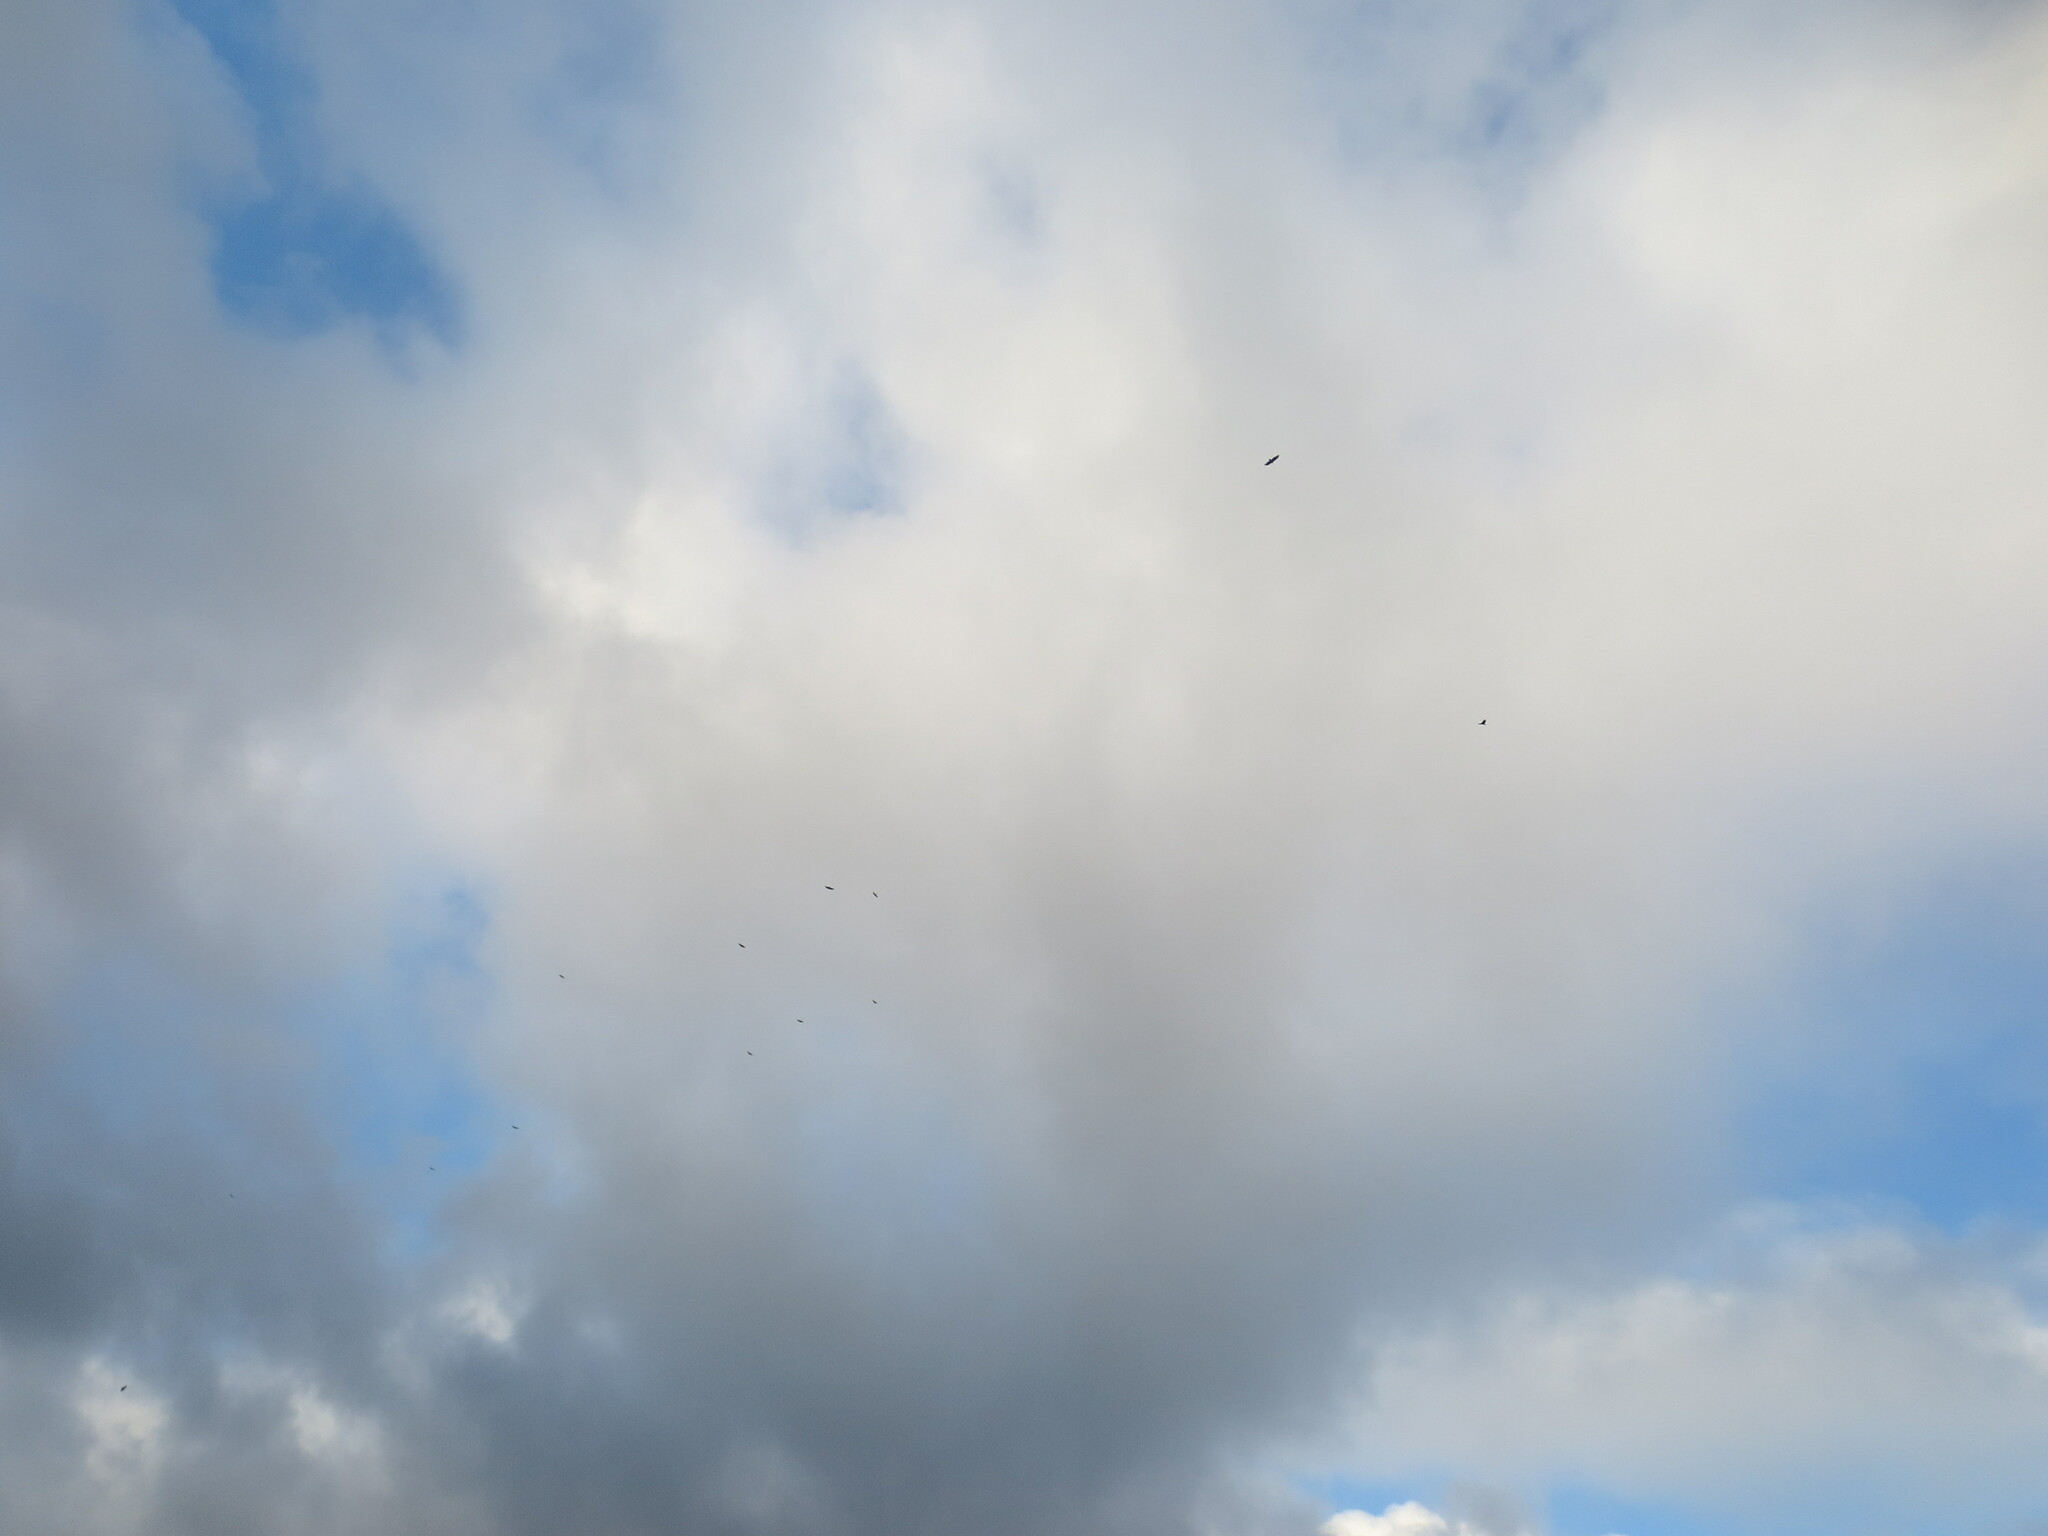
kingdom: Animalia
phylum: Chordata
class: Aves
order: Accipitriformes
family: Cathartidae
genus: Cathartes
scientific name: Cathartes aura
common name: Turkey vulture
